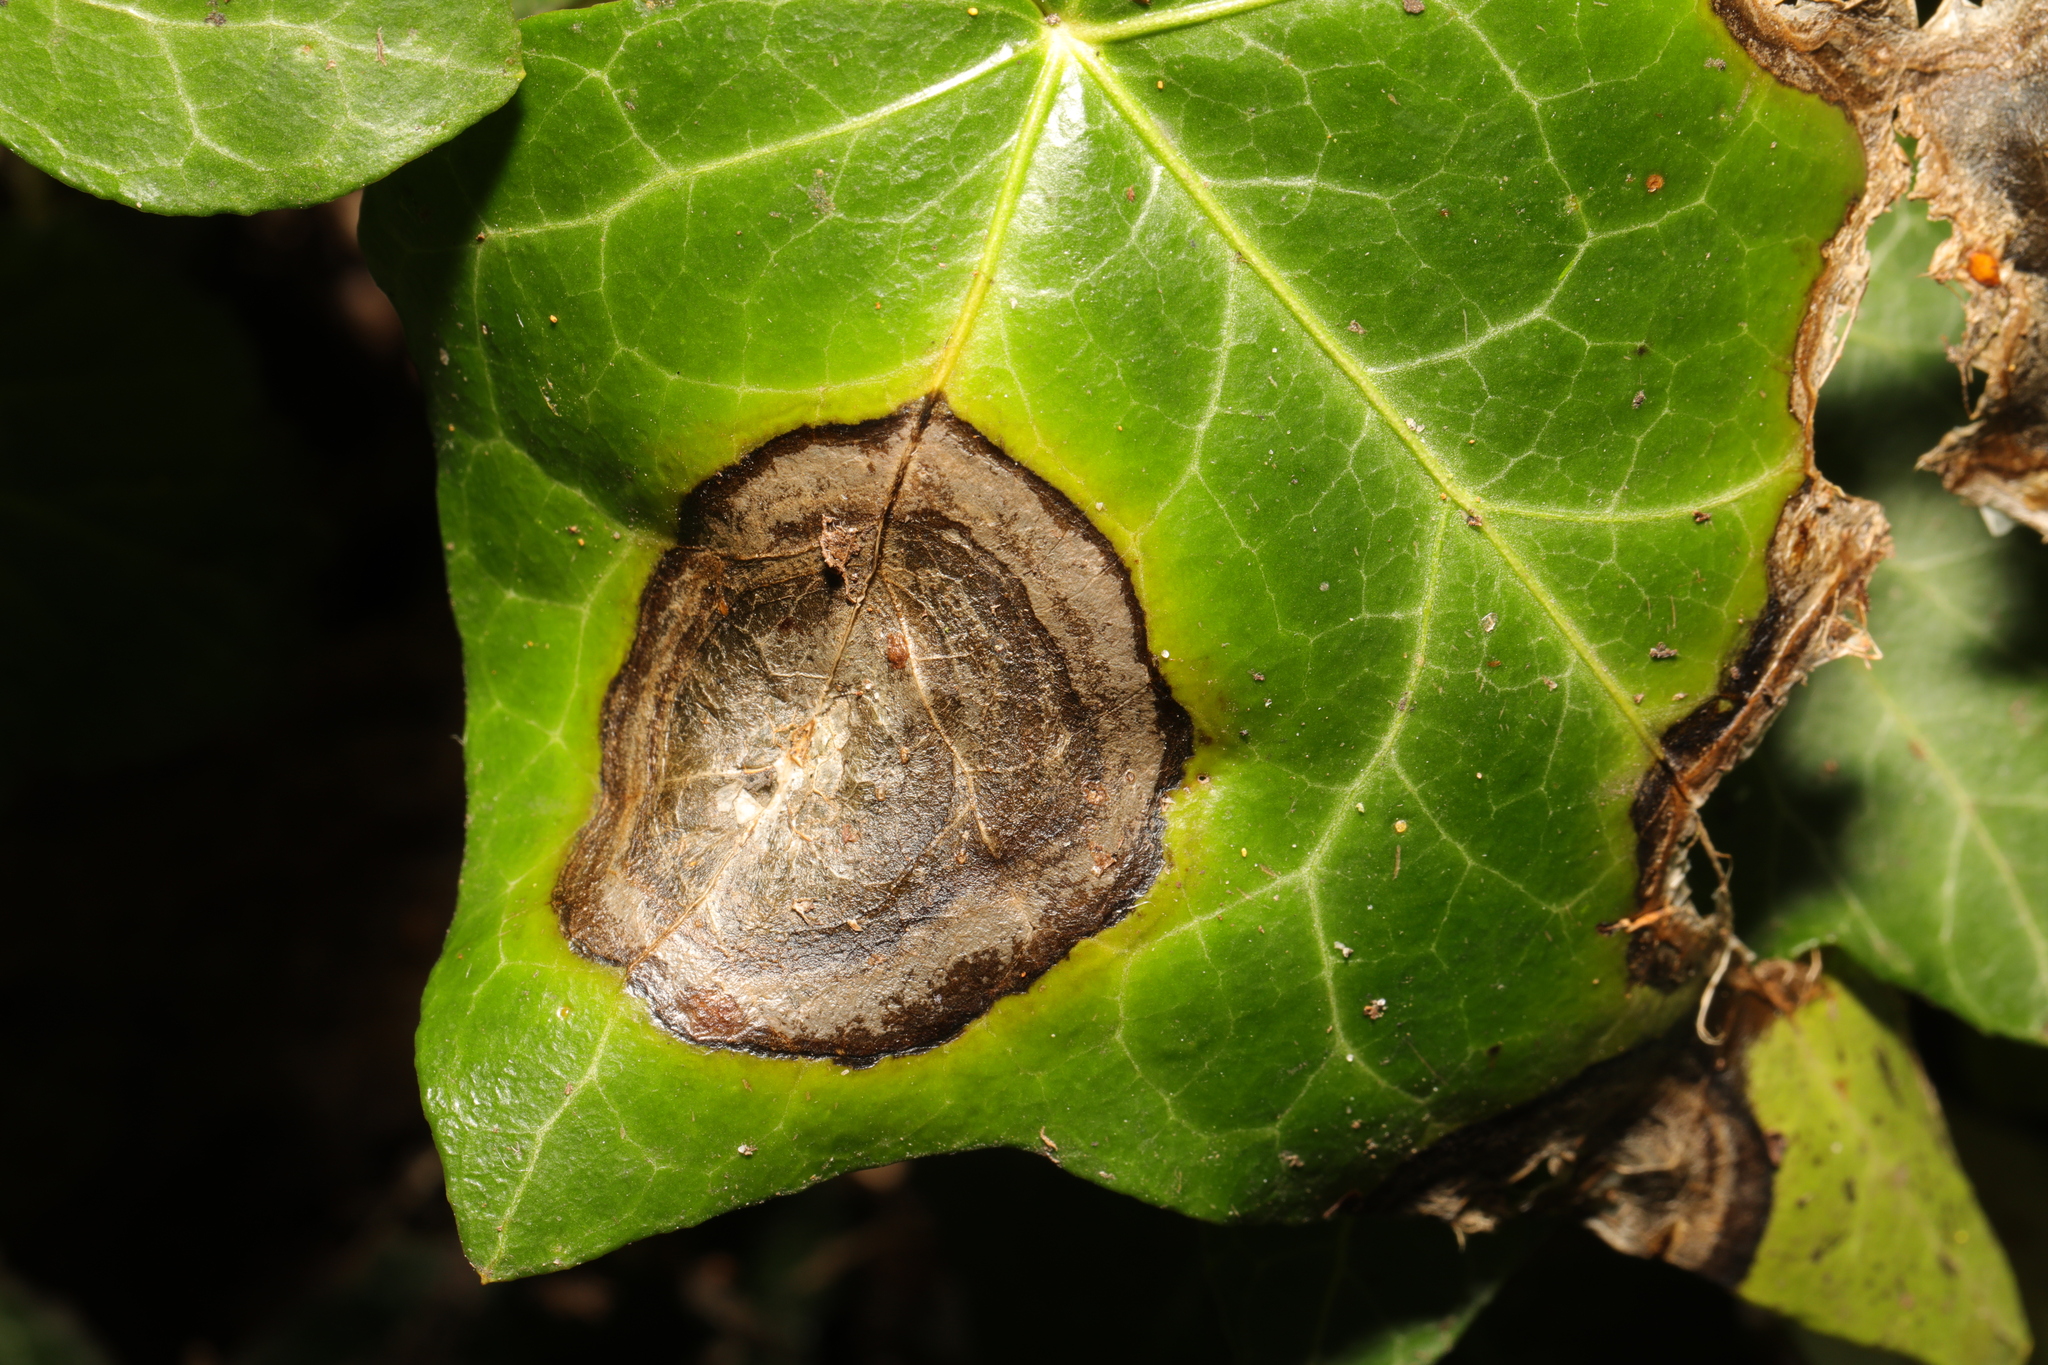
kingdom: Fungi
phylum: Ascomycota
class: Dothideomycetes
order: Pleosporales
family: Didymellaceae
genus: Boeremia
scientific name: Boeremia hedericola
